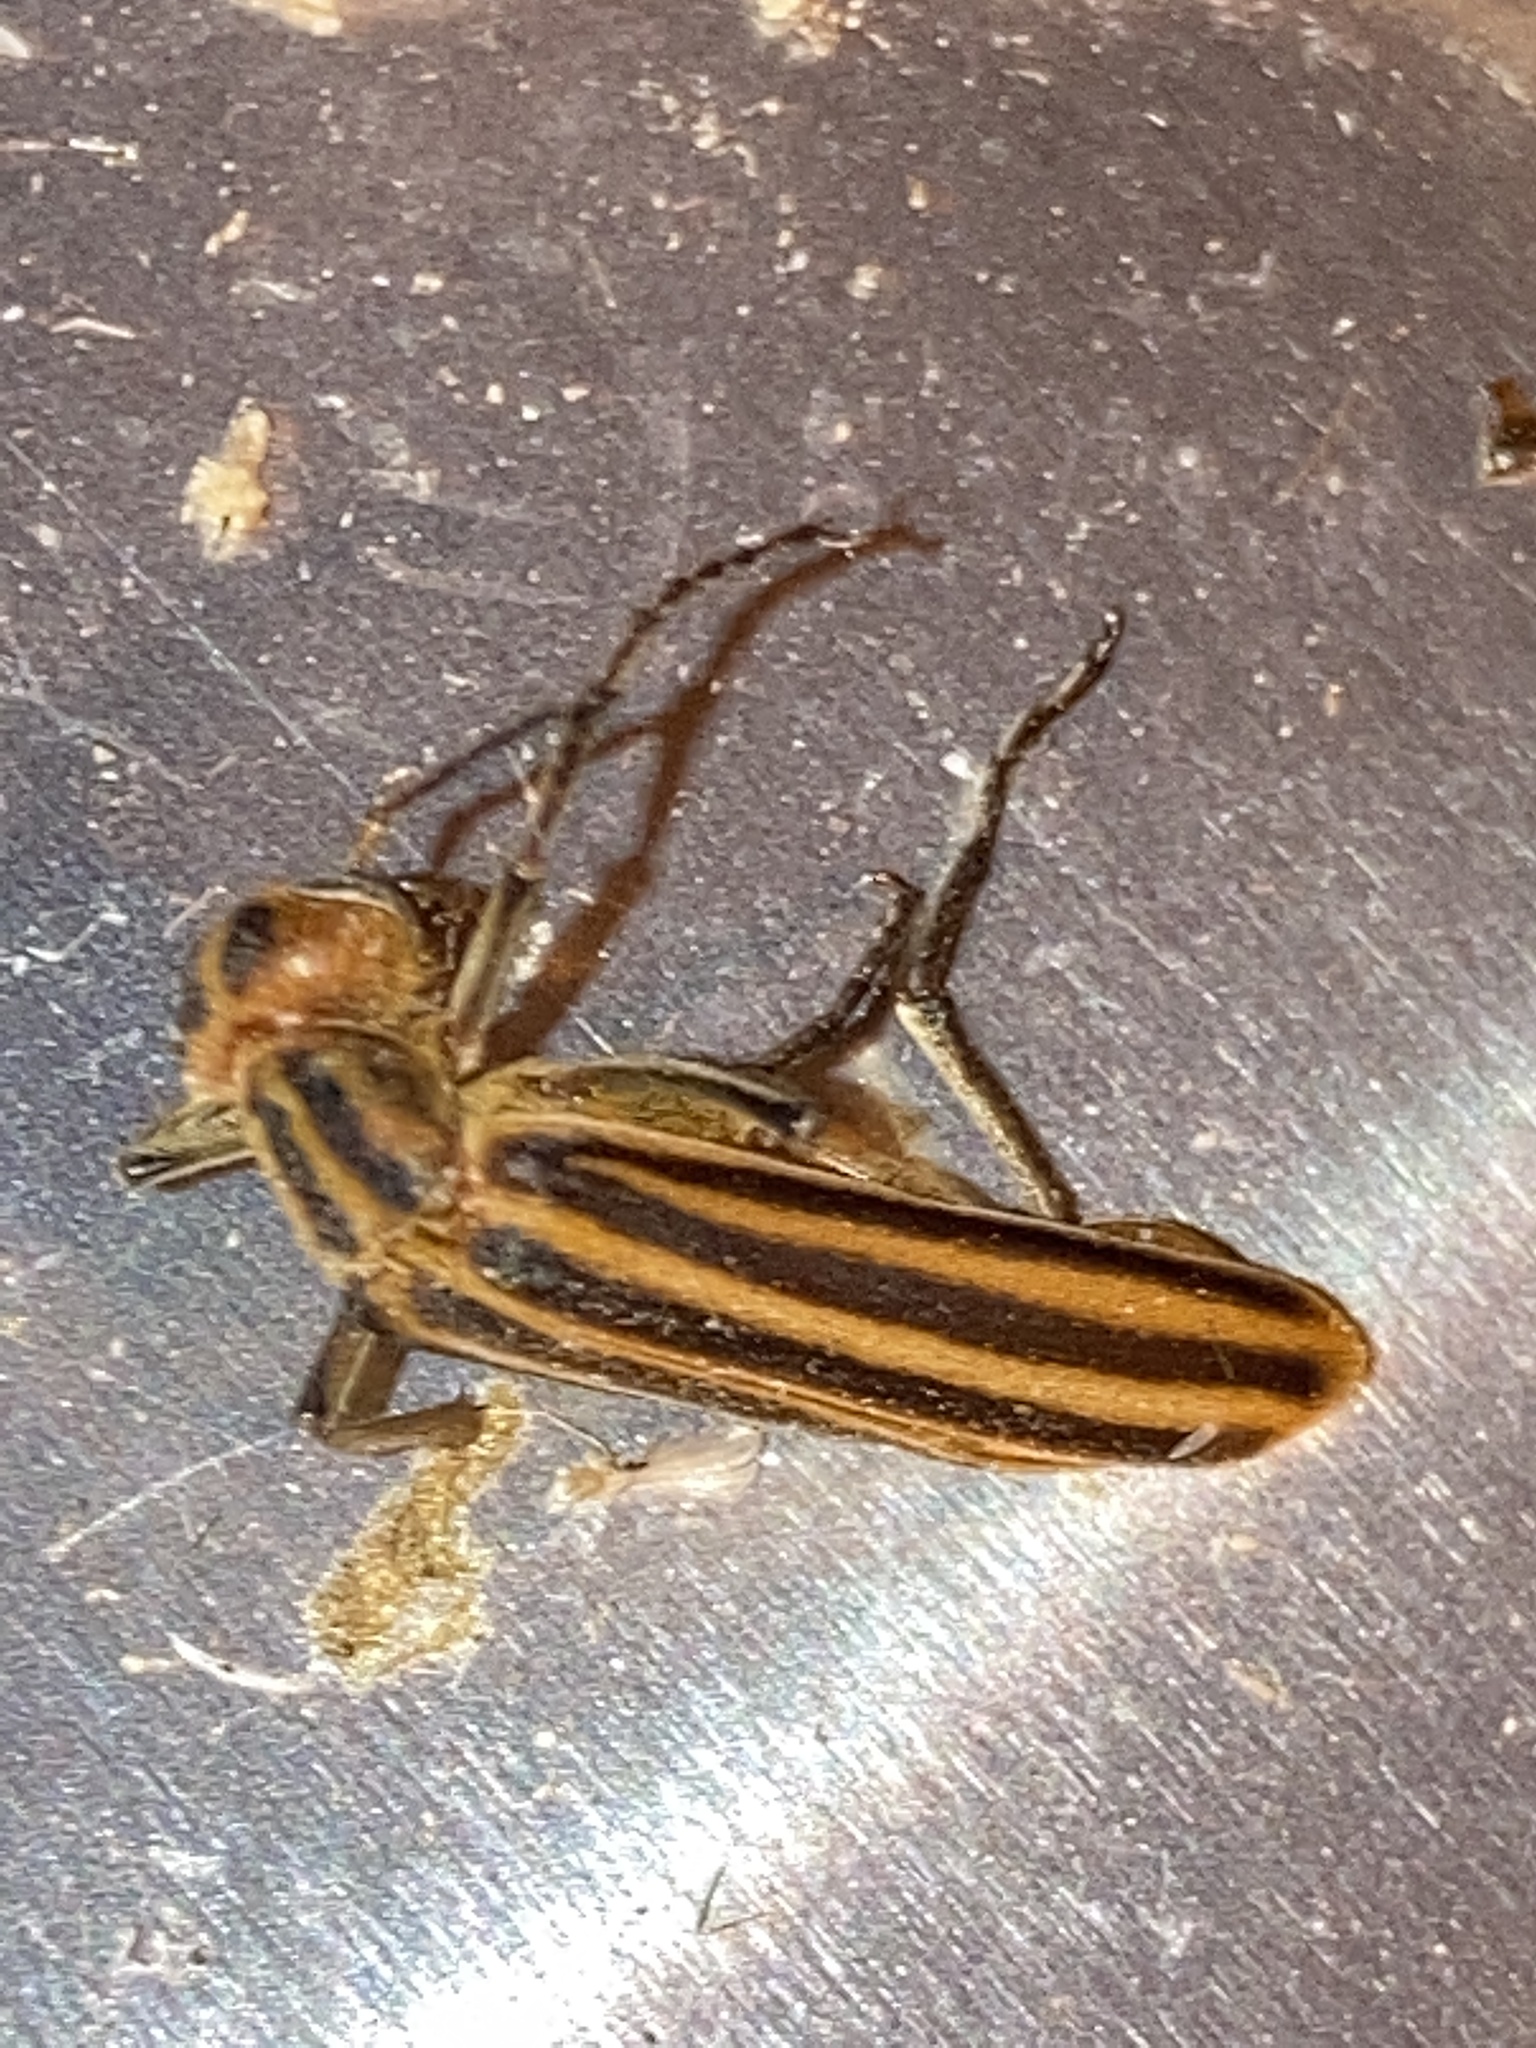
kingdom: Animalia
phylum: Arthropoda
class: Insecta
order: Coleoptera
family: Meloidae
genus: Epicauta
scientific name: Epicauta vittata
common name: Old-fashioned potato beetle
